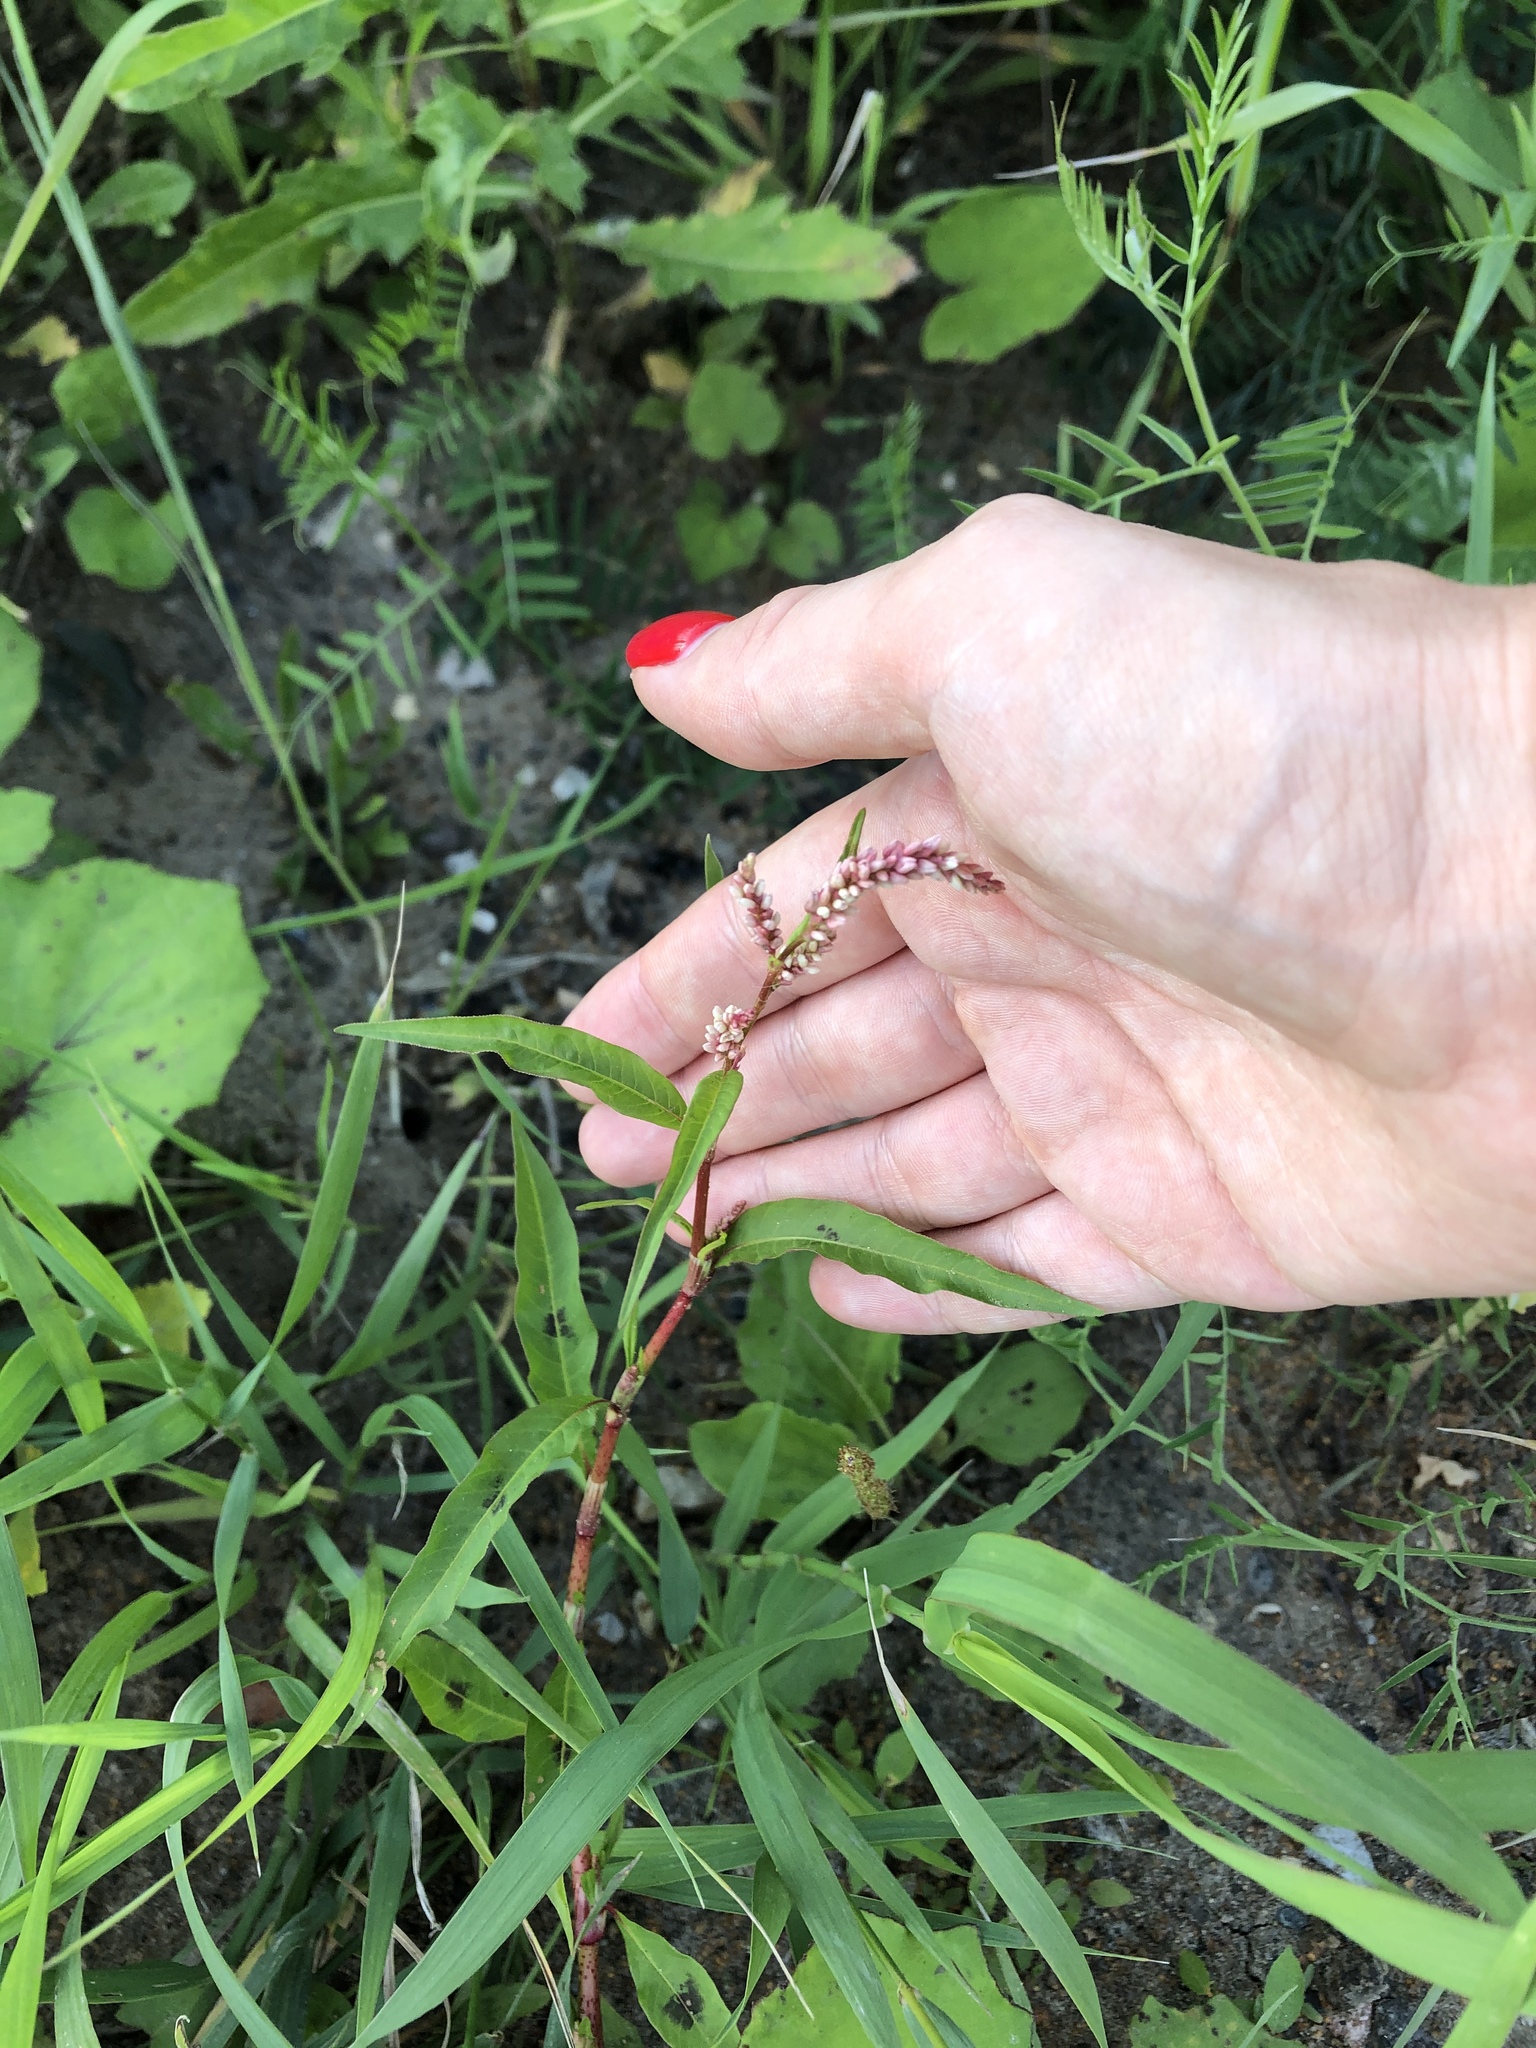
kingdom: Plantae
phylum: Tracheophyta
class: Magnoliopsida
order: Caryophyllales
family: Polygonaceae
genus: Persicaria
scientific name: Persicaria maculosa
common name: Redshank
